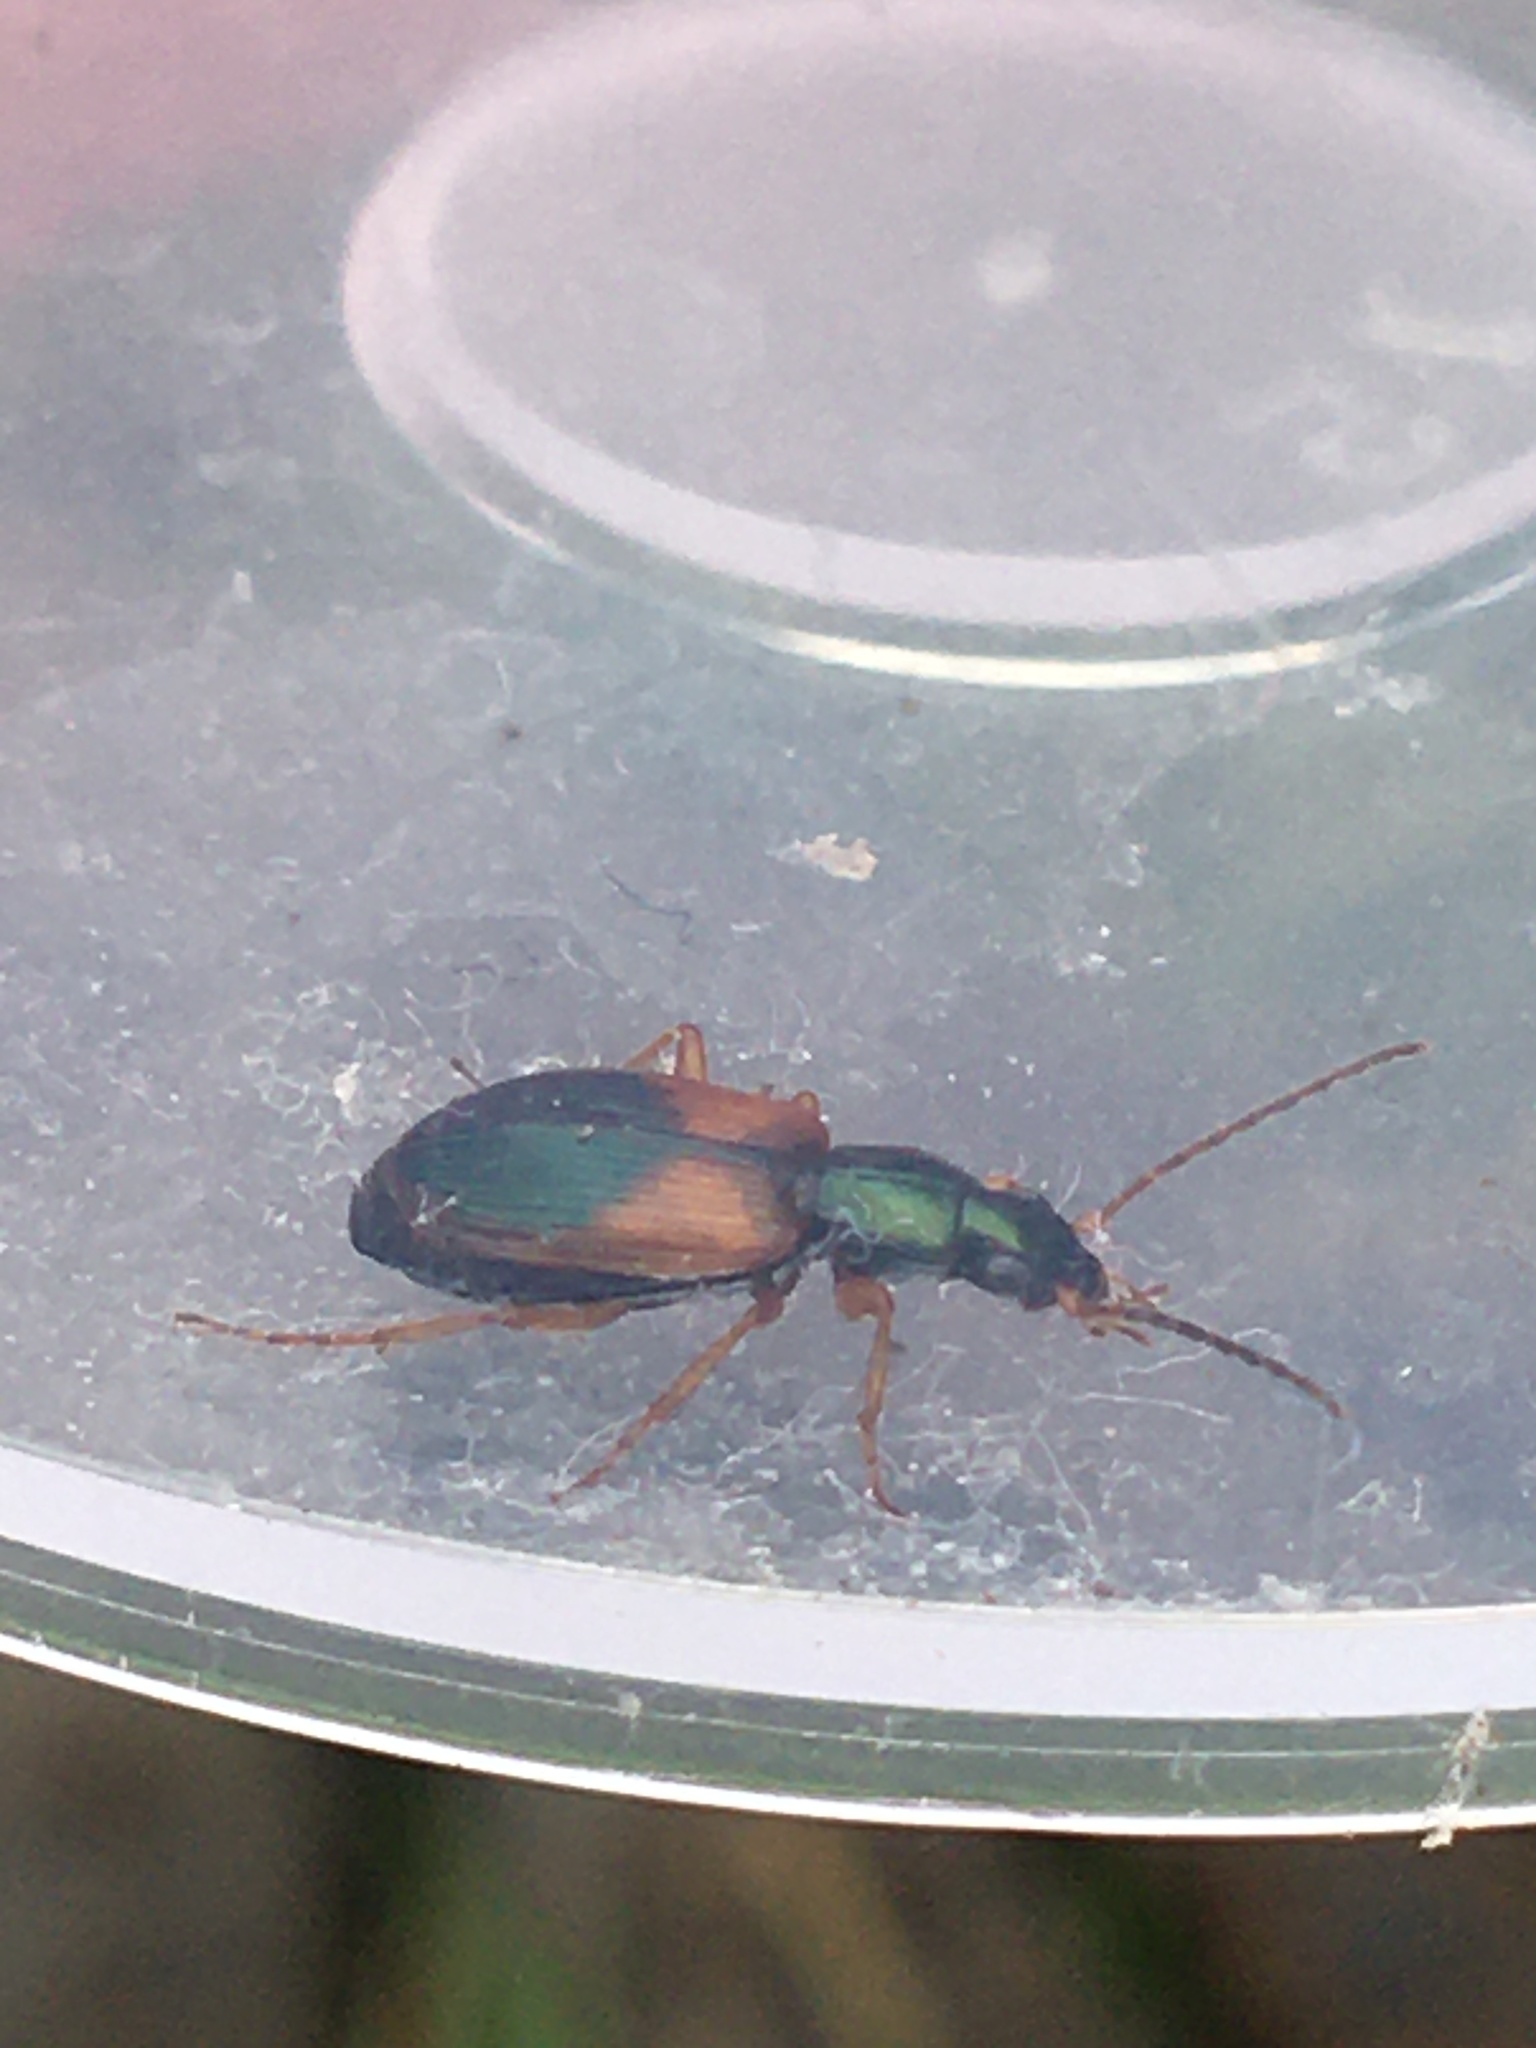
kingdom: Animalia
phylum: Arthropoda
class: Insecta
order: Coleoptera
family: Carabidae
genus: Anchomenus
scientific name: Anchomenus dorsalis
